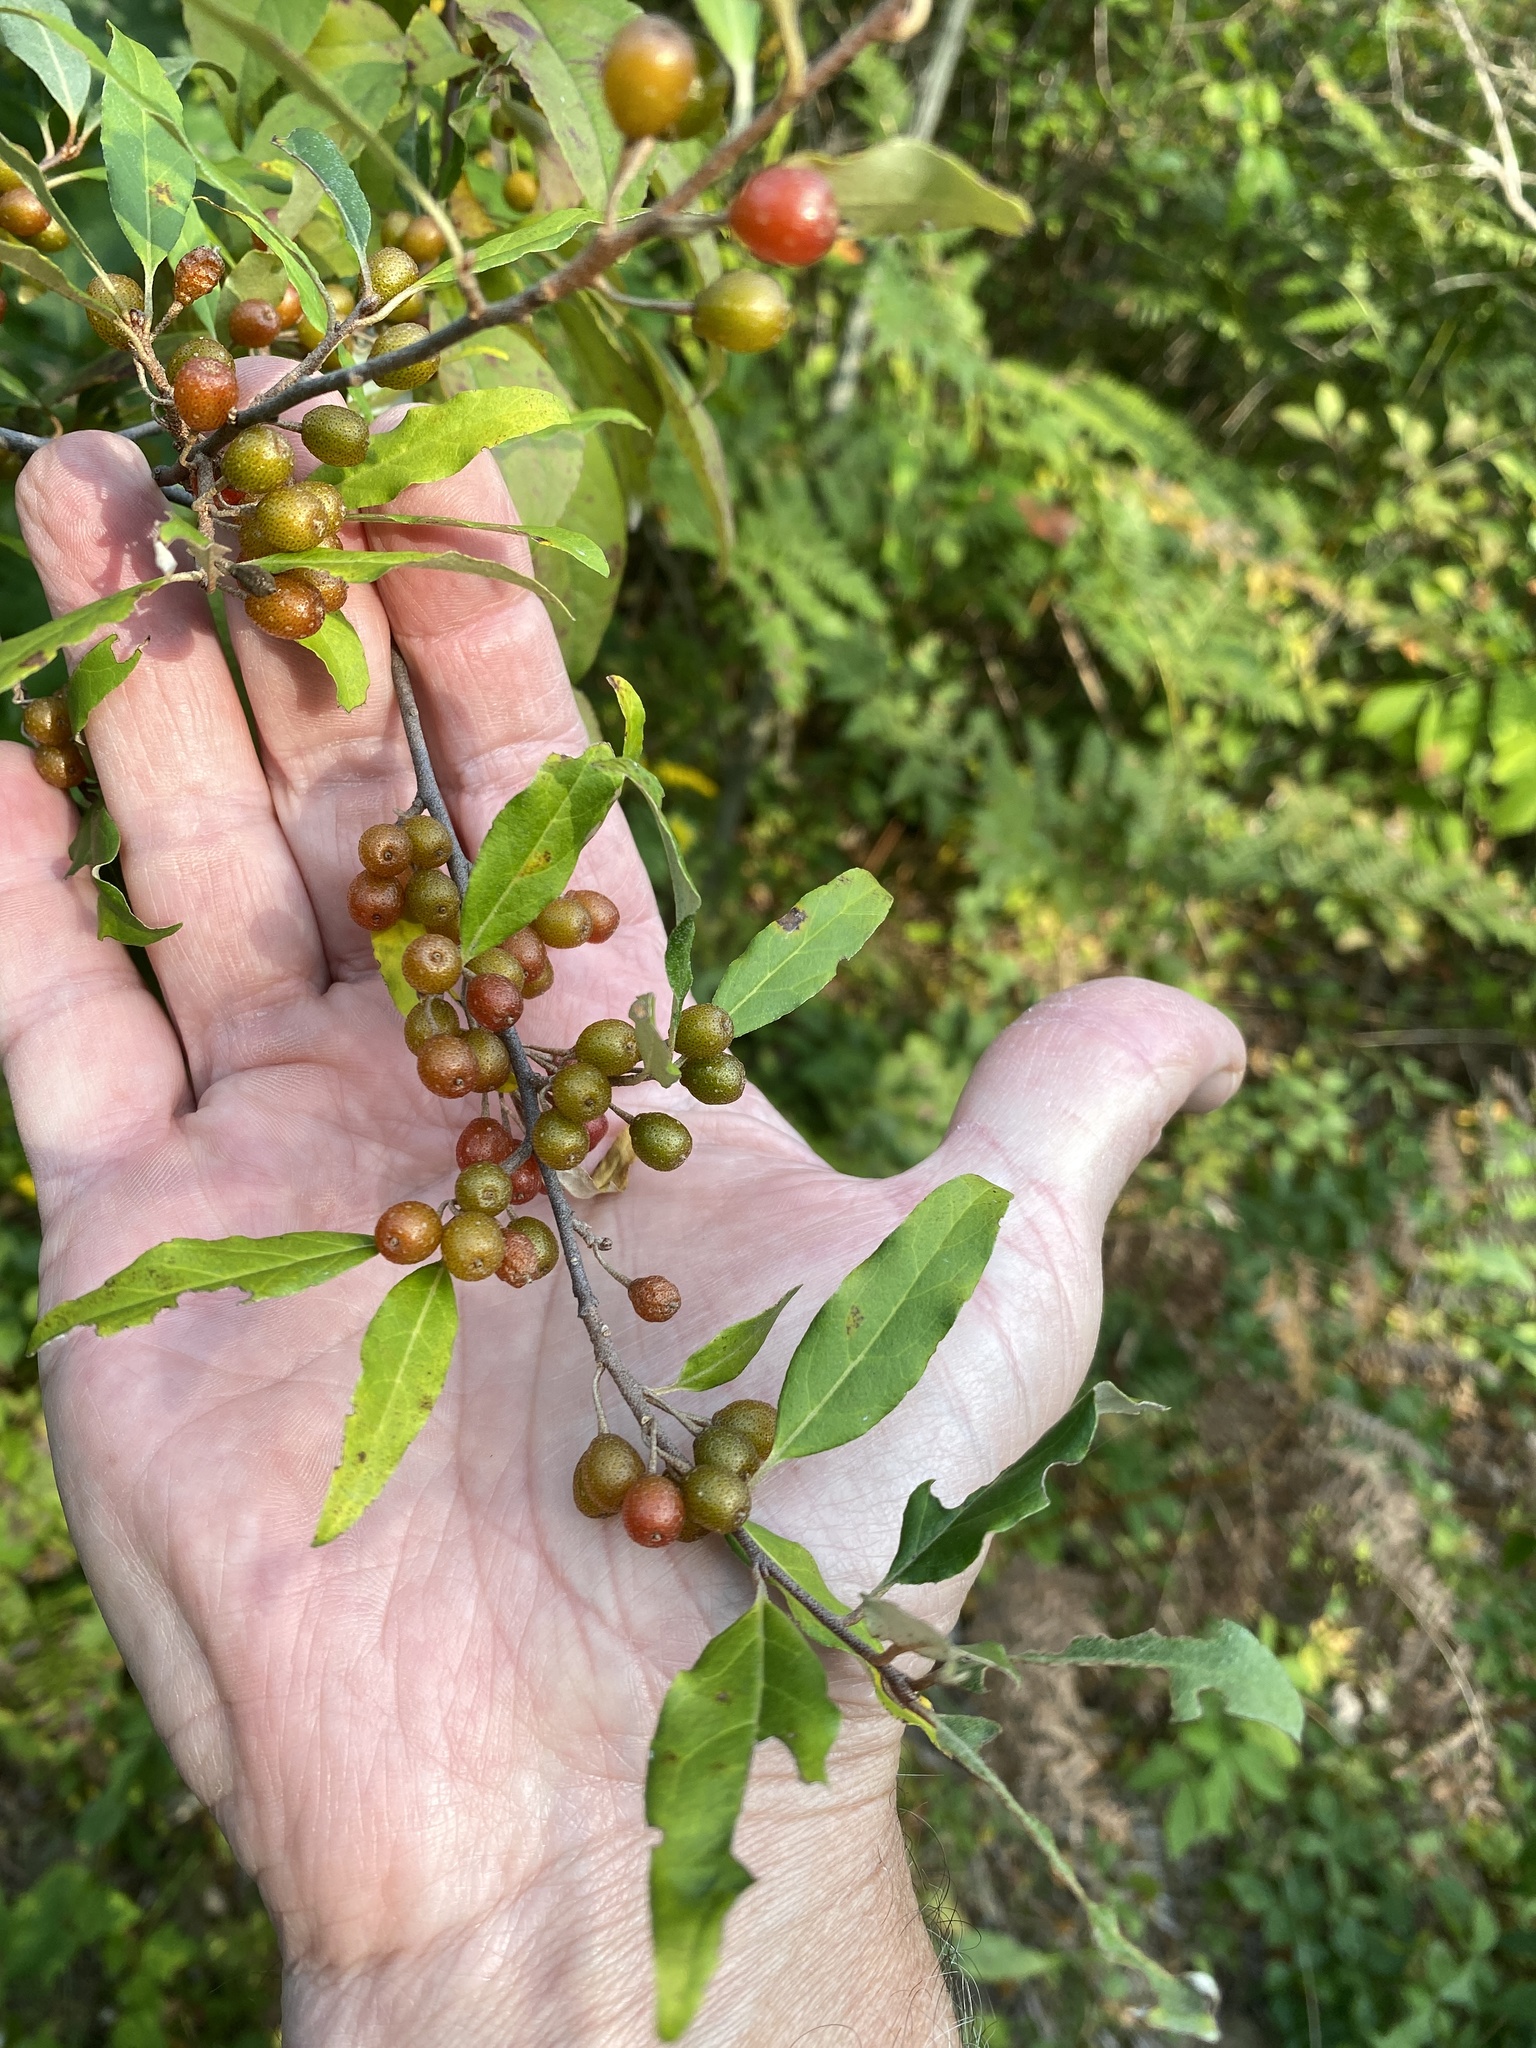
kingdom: Plantae
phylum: Tracheophyta
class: Magnoliopsida
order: Rosales
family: Elaeagnaceae
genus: Elaeagnus
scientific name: Elaeagnus umbellata
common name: Autumn olive
